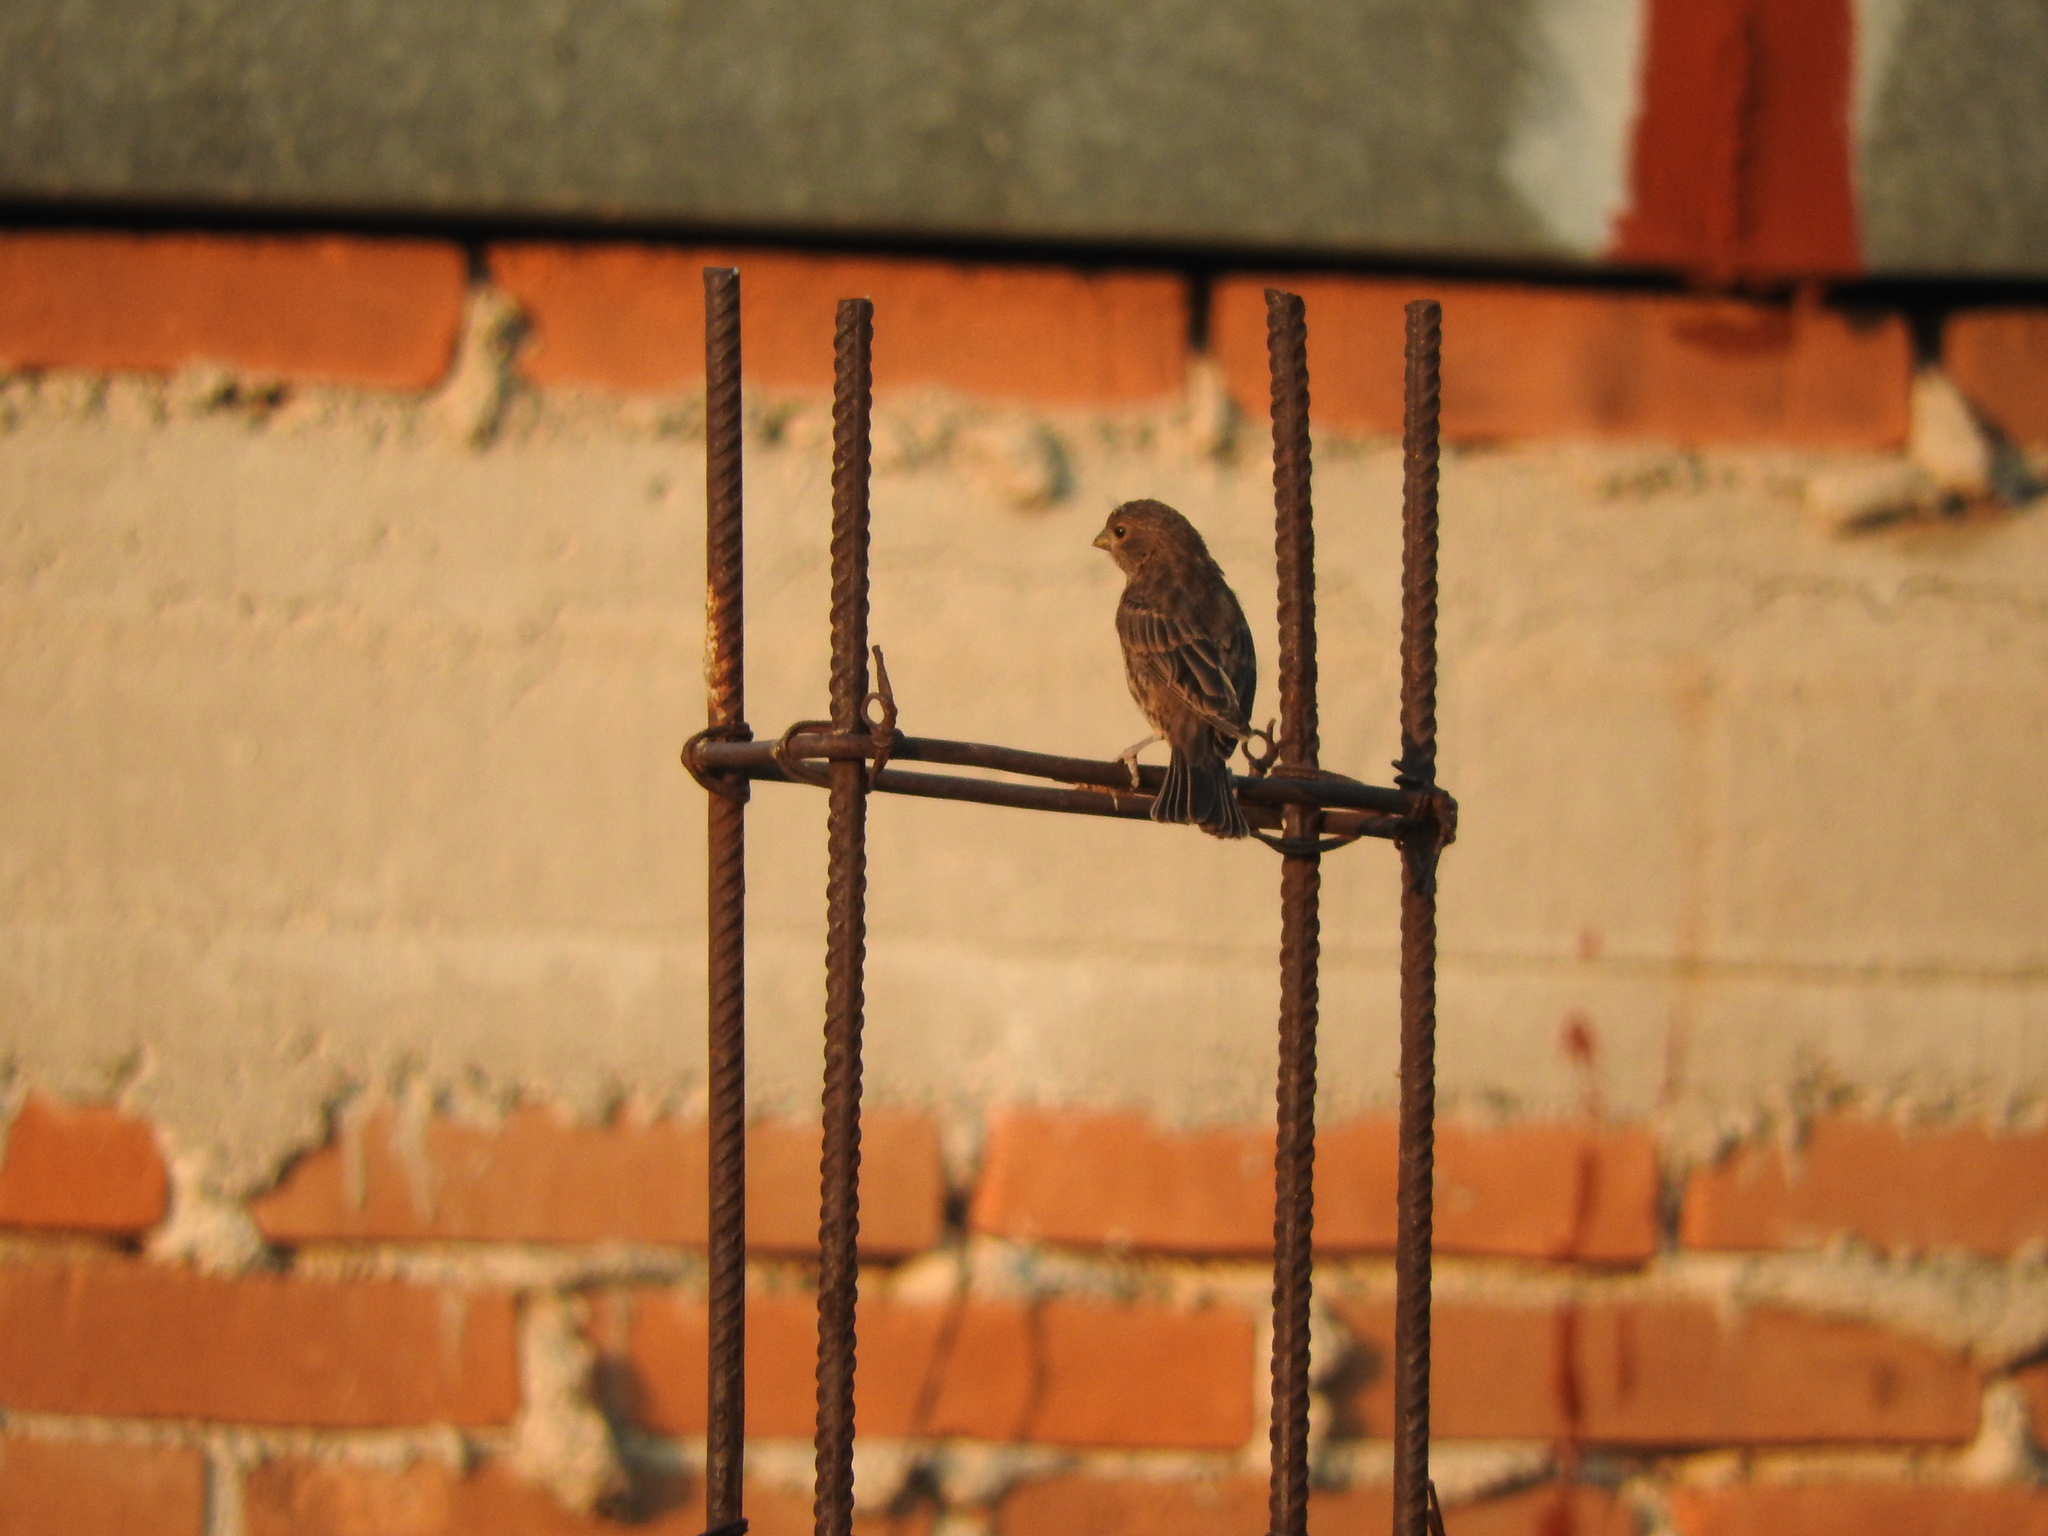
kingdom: Animalia
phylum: Chordata
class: Aves
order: Passeriformes
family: Fringillidae
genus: Haemorhous
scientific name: Haemorhous mexicanus
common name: House finch
